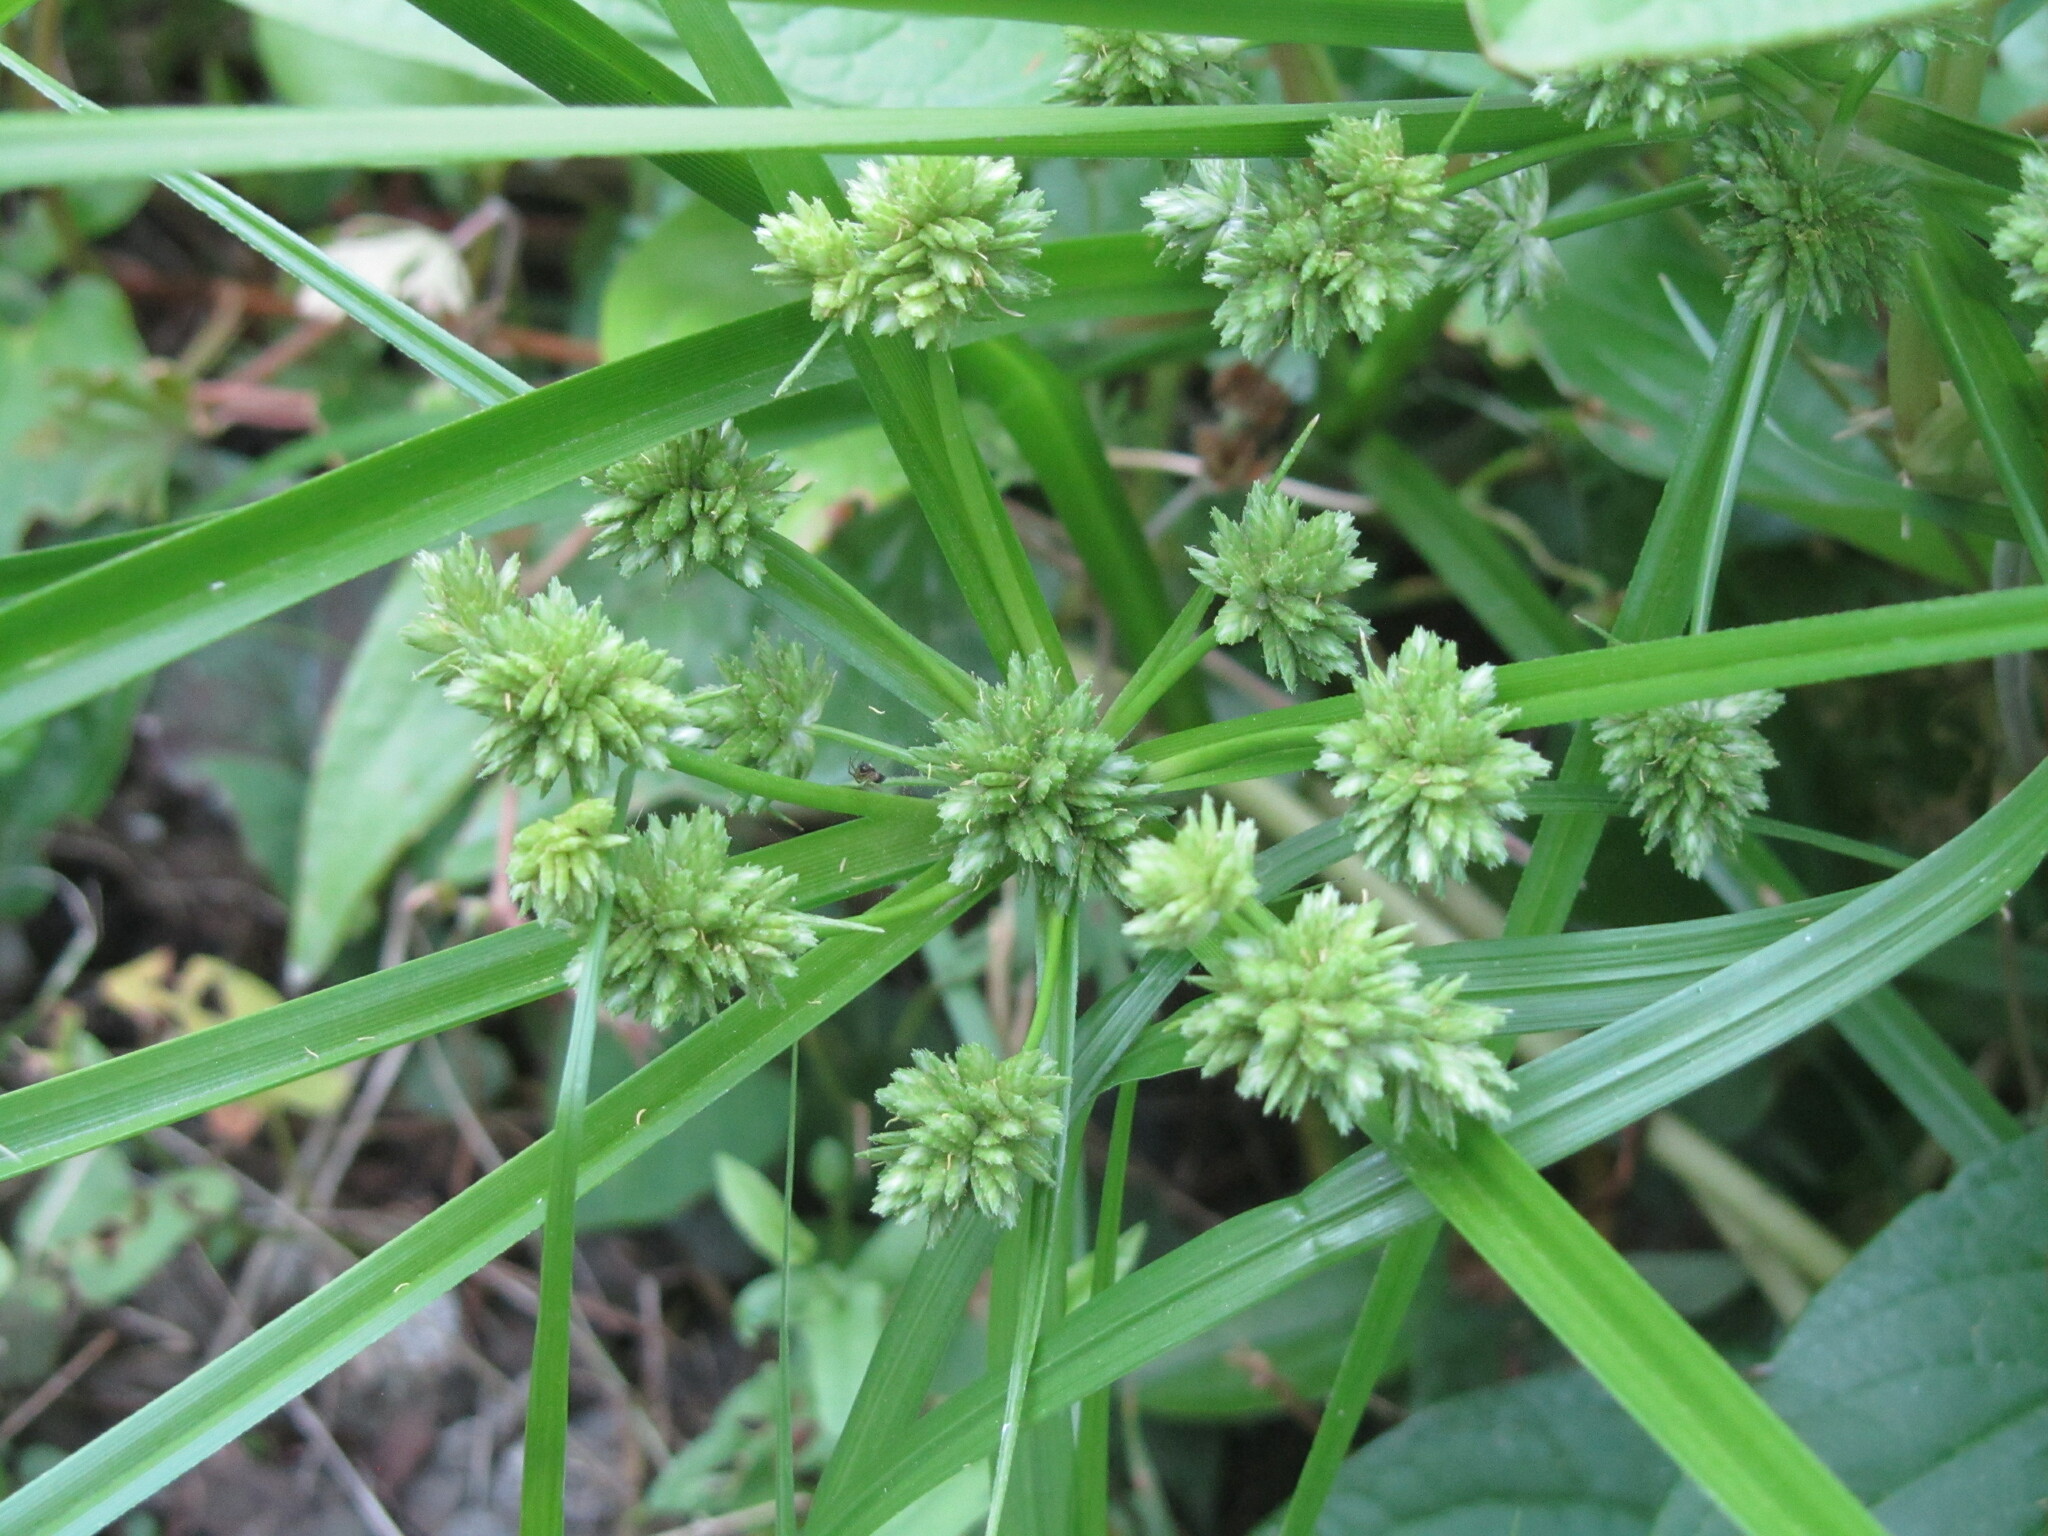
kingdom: Plantae
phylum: Tracheophyta
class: Liliopsida
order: Poales
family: Cyperaceae
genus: Cyperus
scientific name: Cyperus eragrostis
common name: Tall flatsedge
